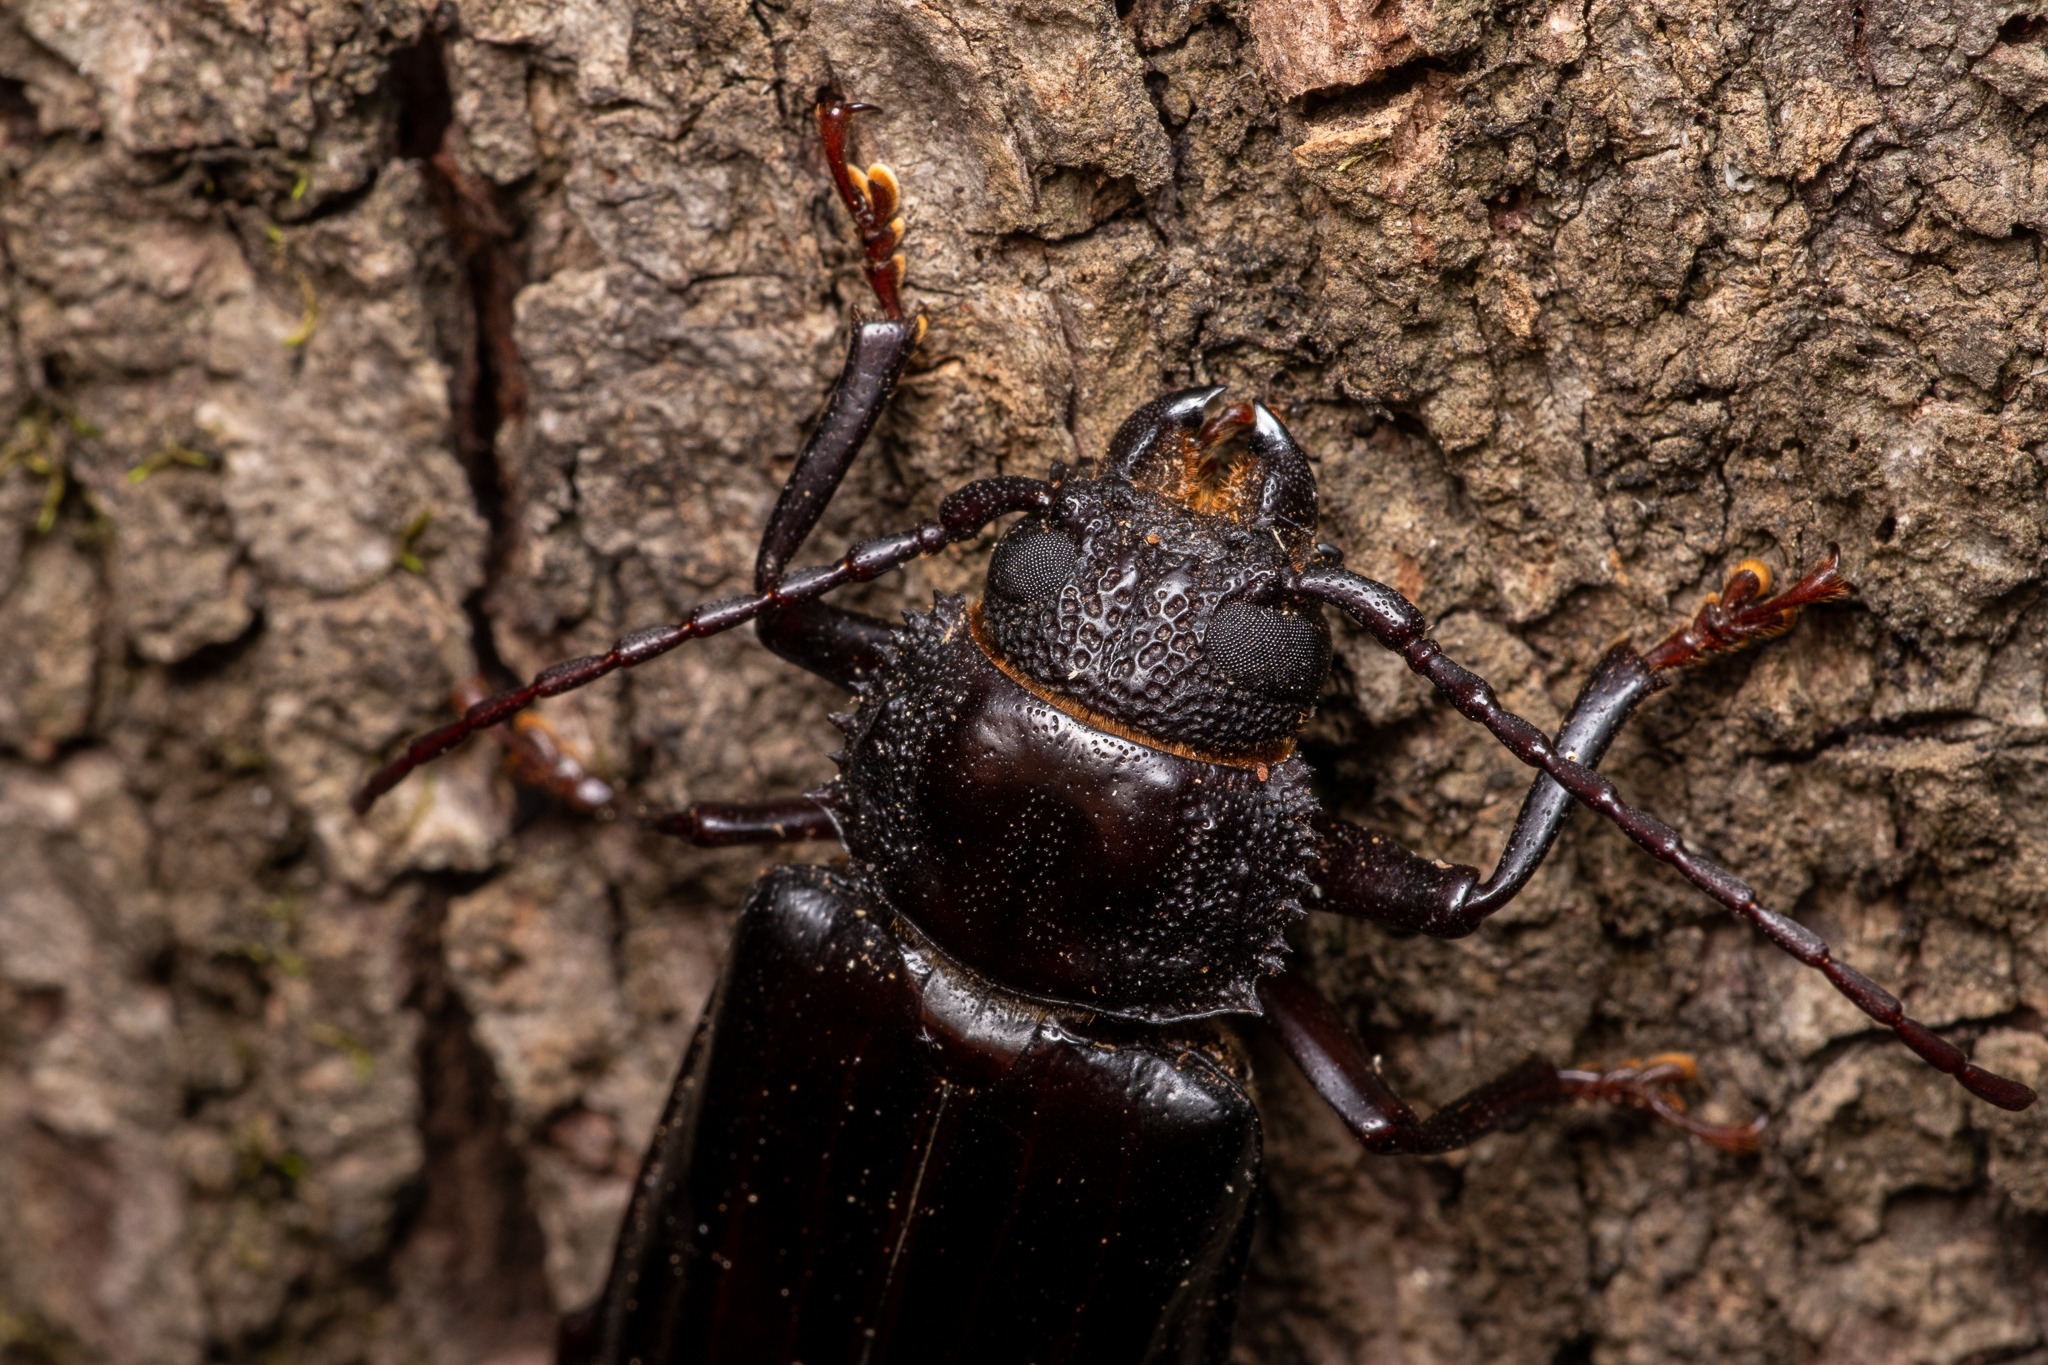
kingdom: Animalia
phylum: Arthropoda
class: Insecta
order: Coleoptera
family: Cerambycidae
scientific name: Cerambycidae
